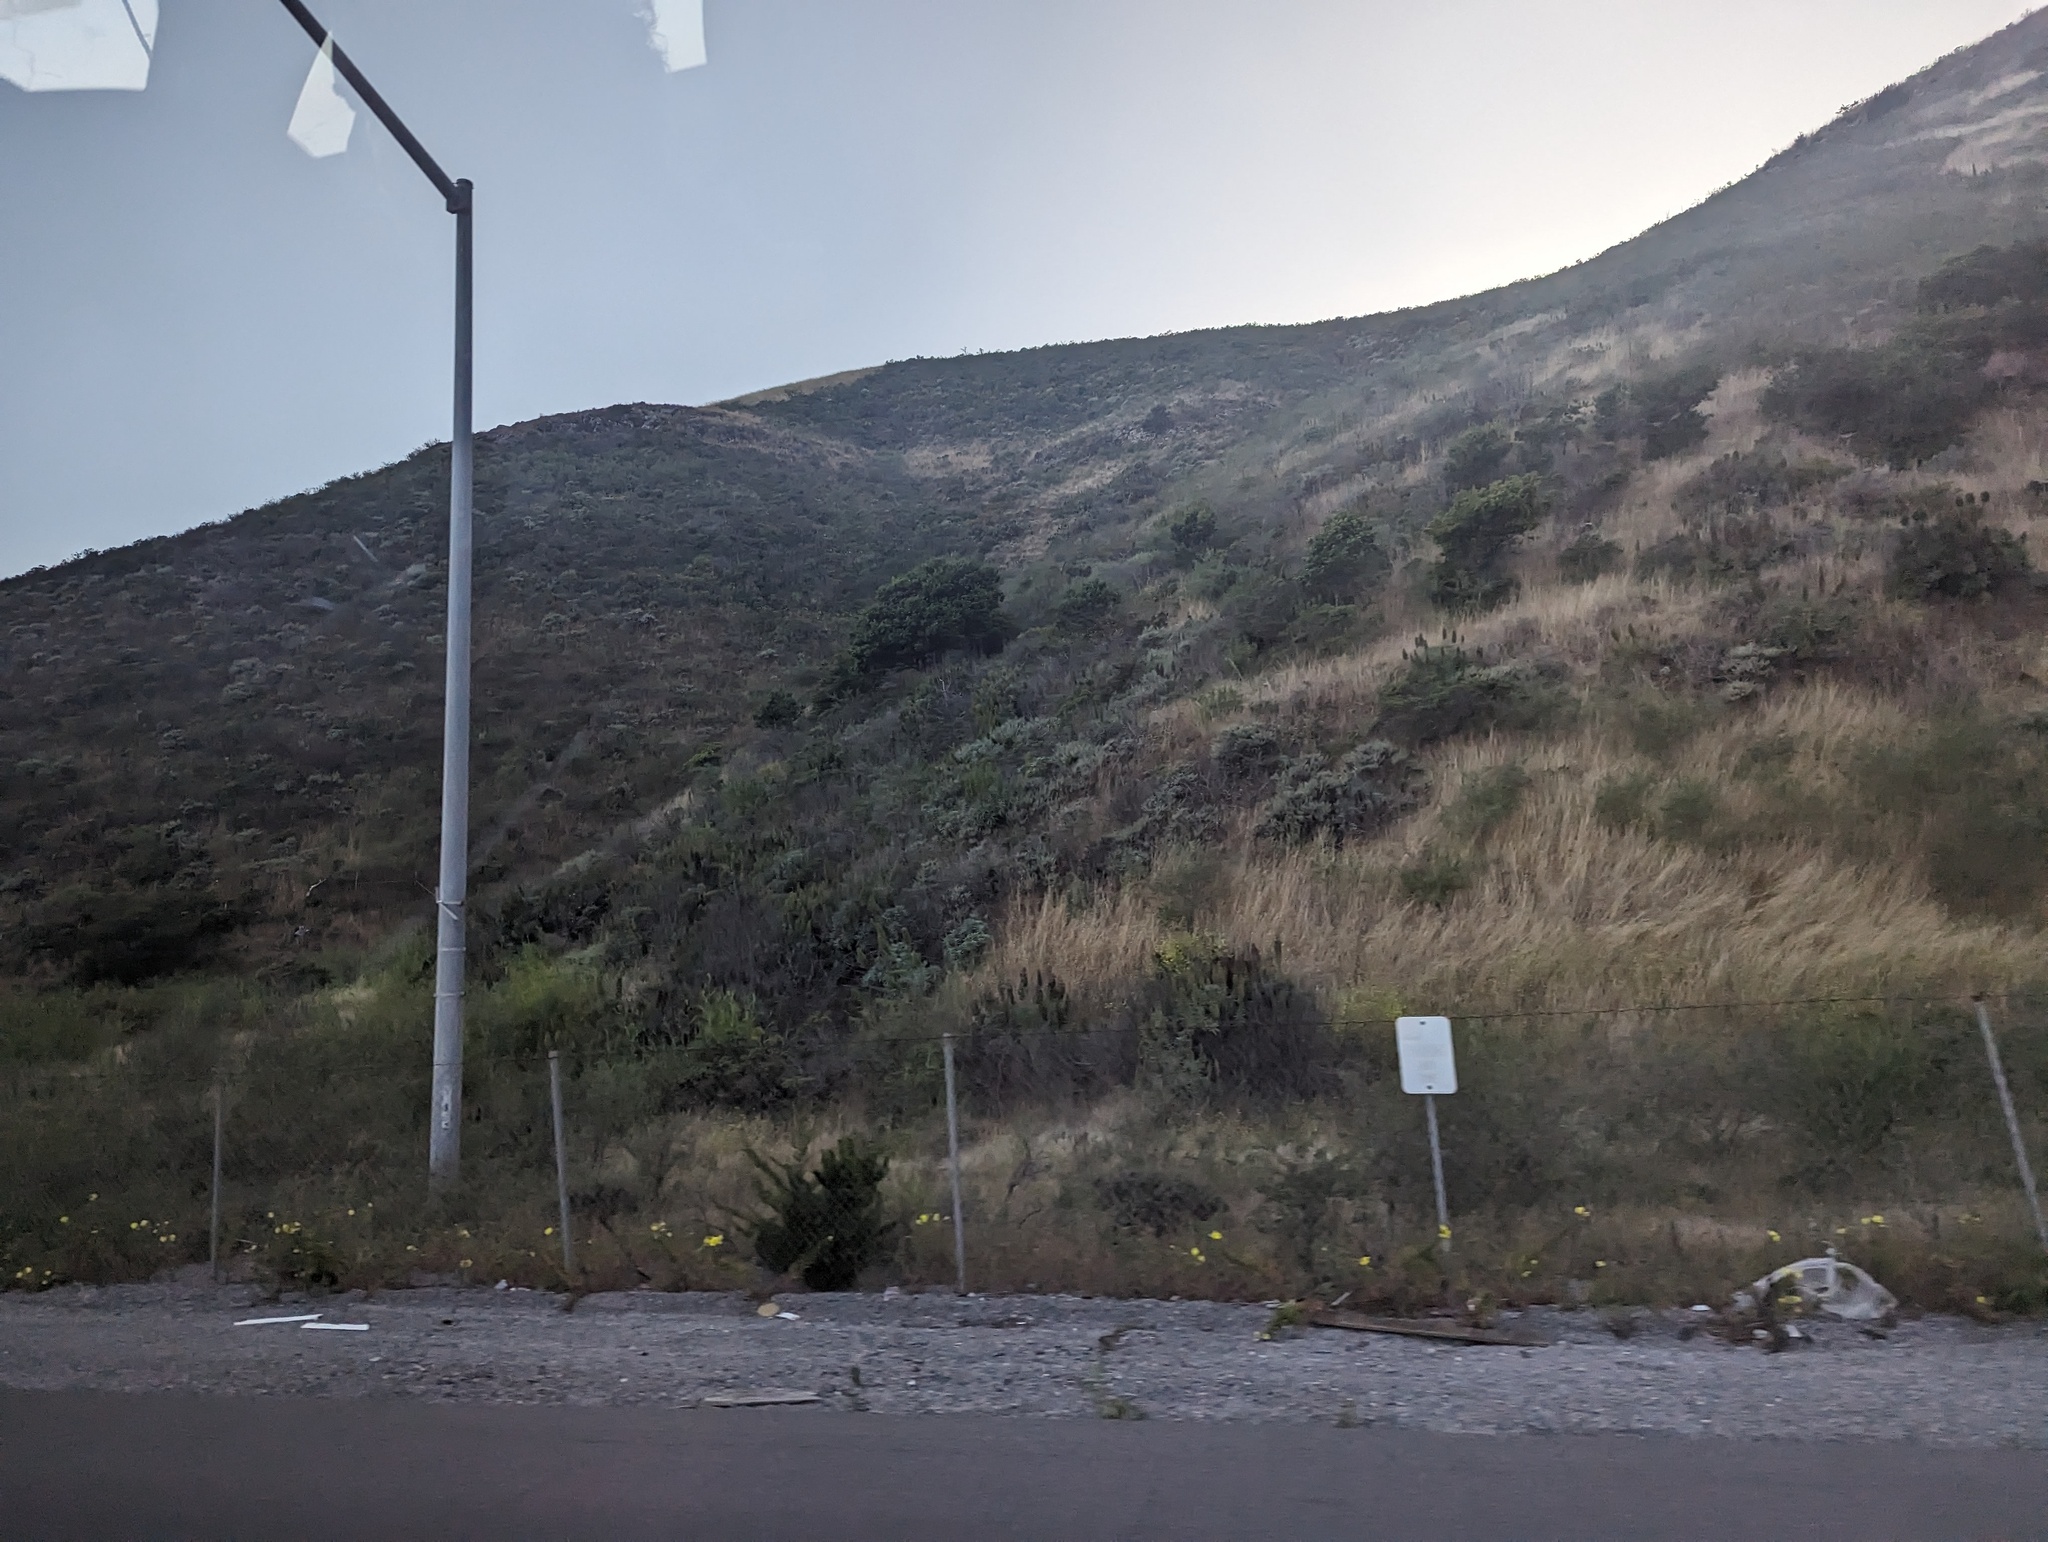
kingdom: Plantae
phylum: Tracheophyta
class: Magnoliopsida
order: Boraginales
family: Boraginaceae
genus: Echium
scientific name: Echium candicans
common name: Pride of madeira
